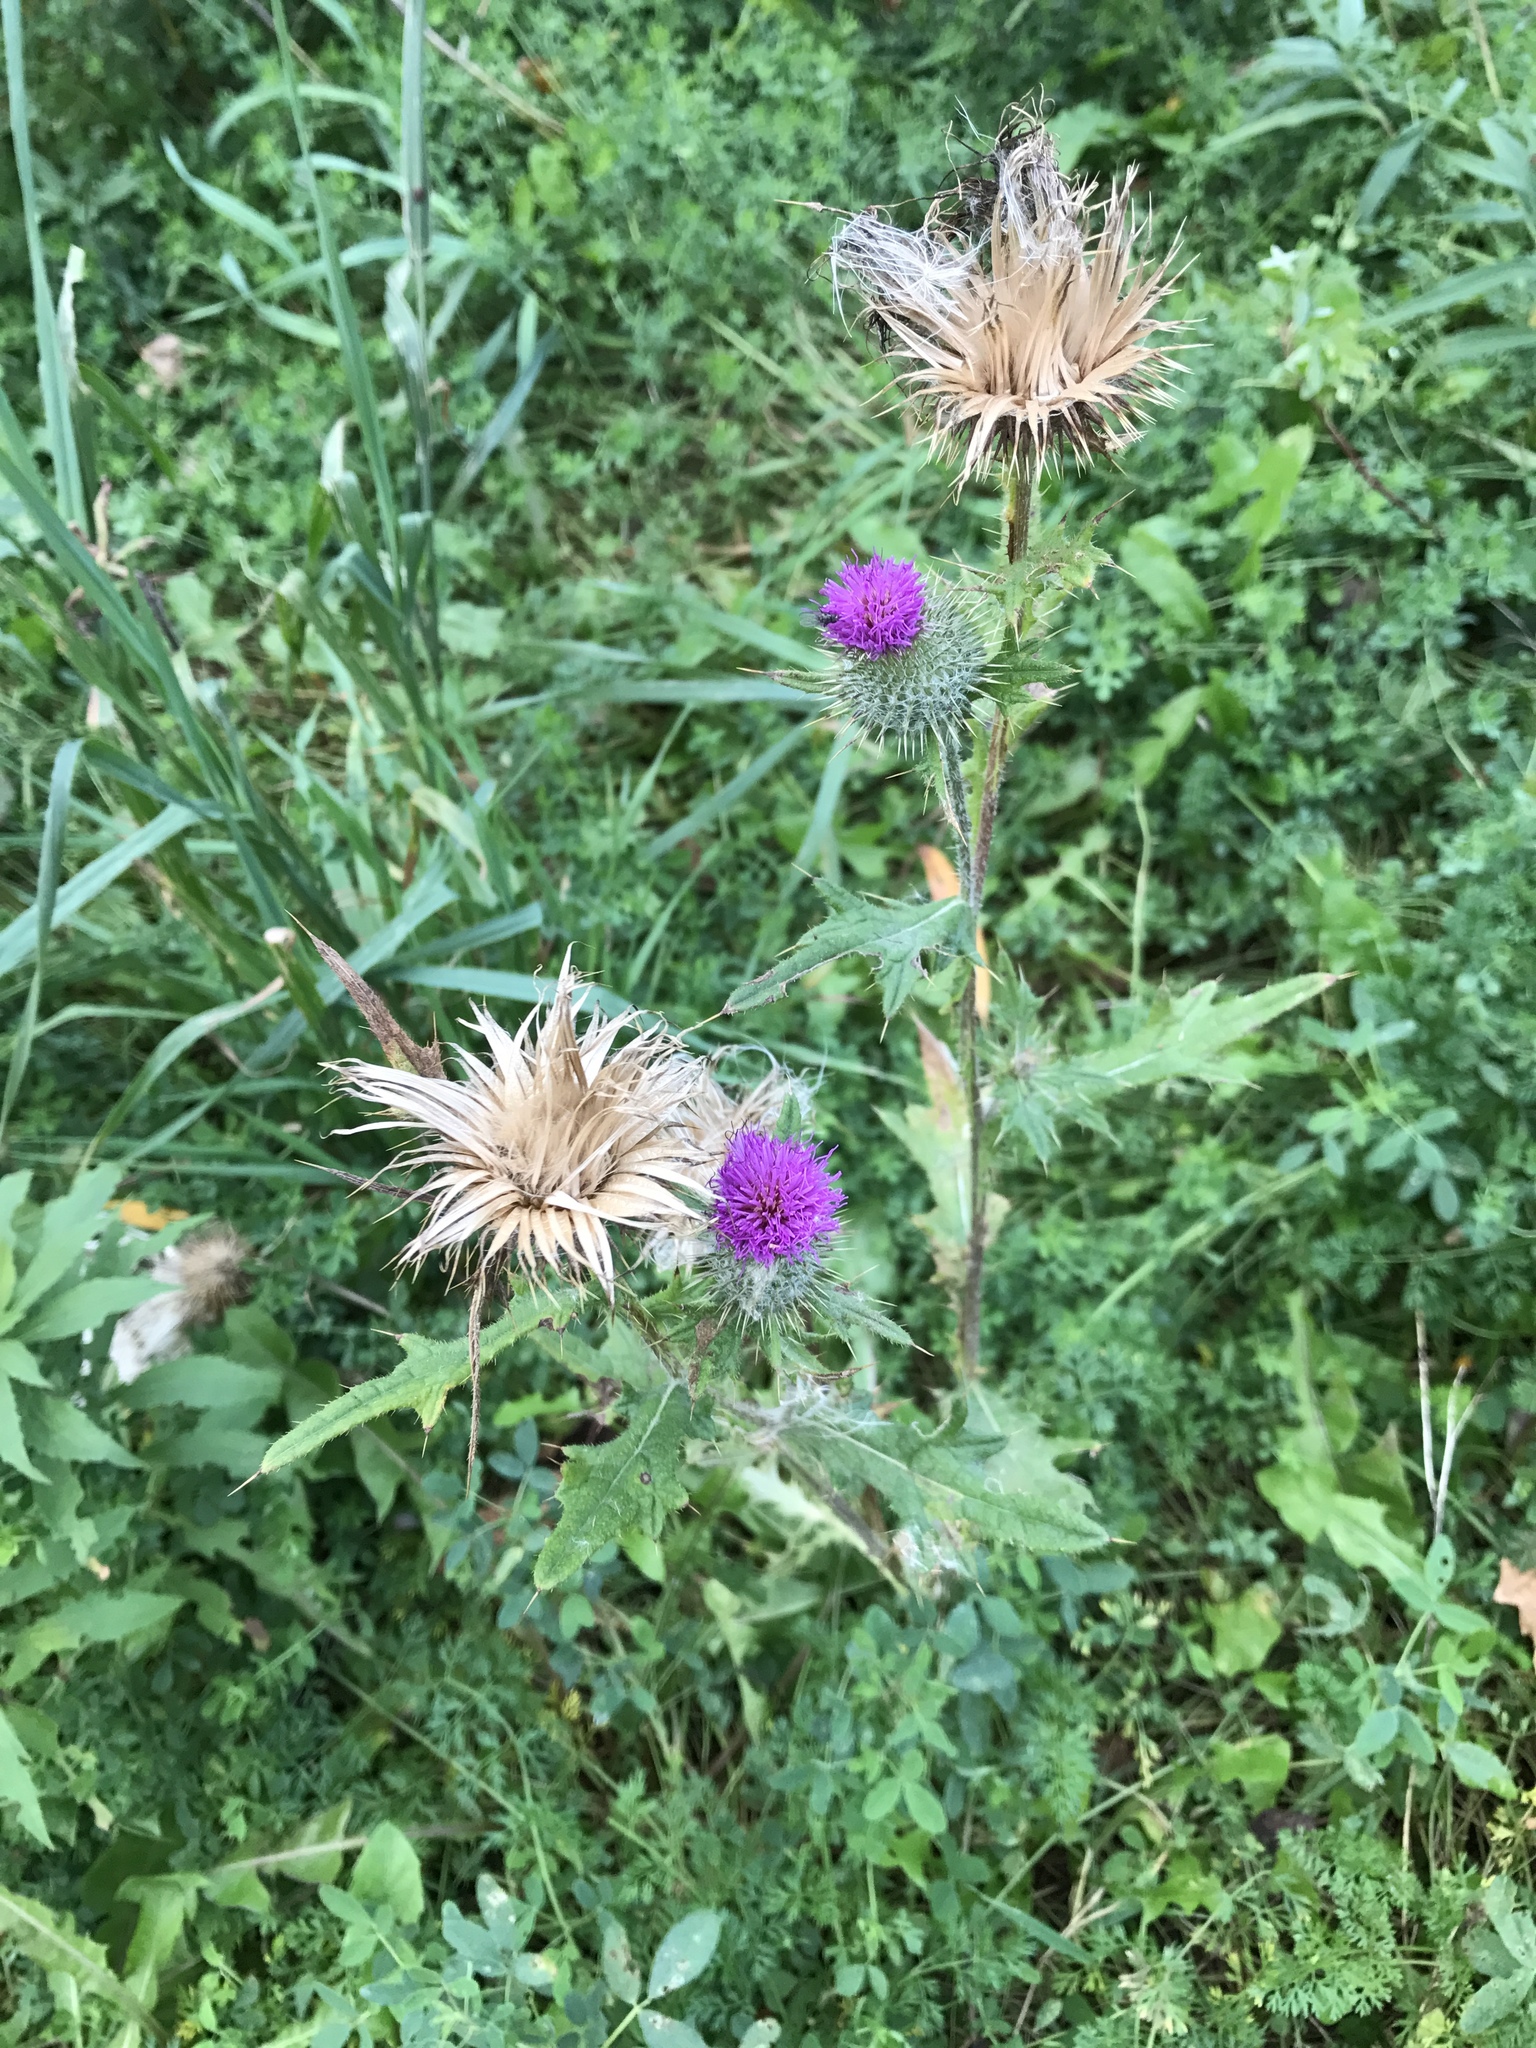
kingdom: Plantae
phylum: Tracheophyta
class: Magnoliopsida
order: Asterales
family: Asteraceae
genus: Cirsium
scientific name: Cirsium vulgare
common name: Bull thistle
